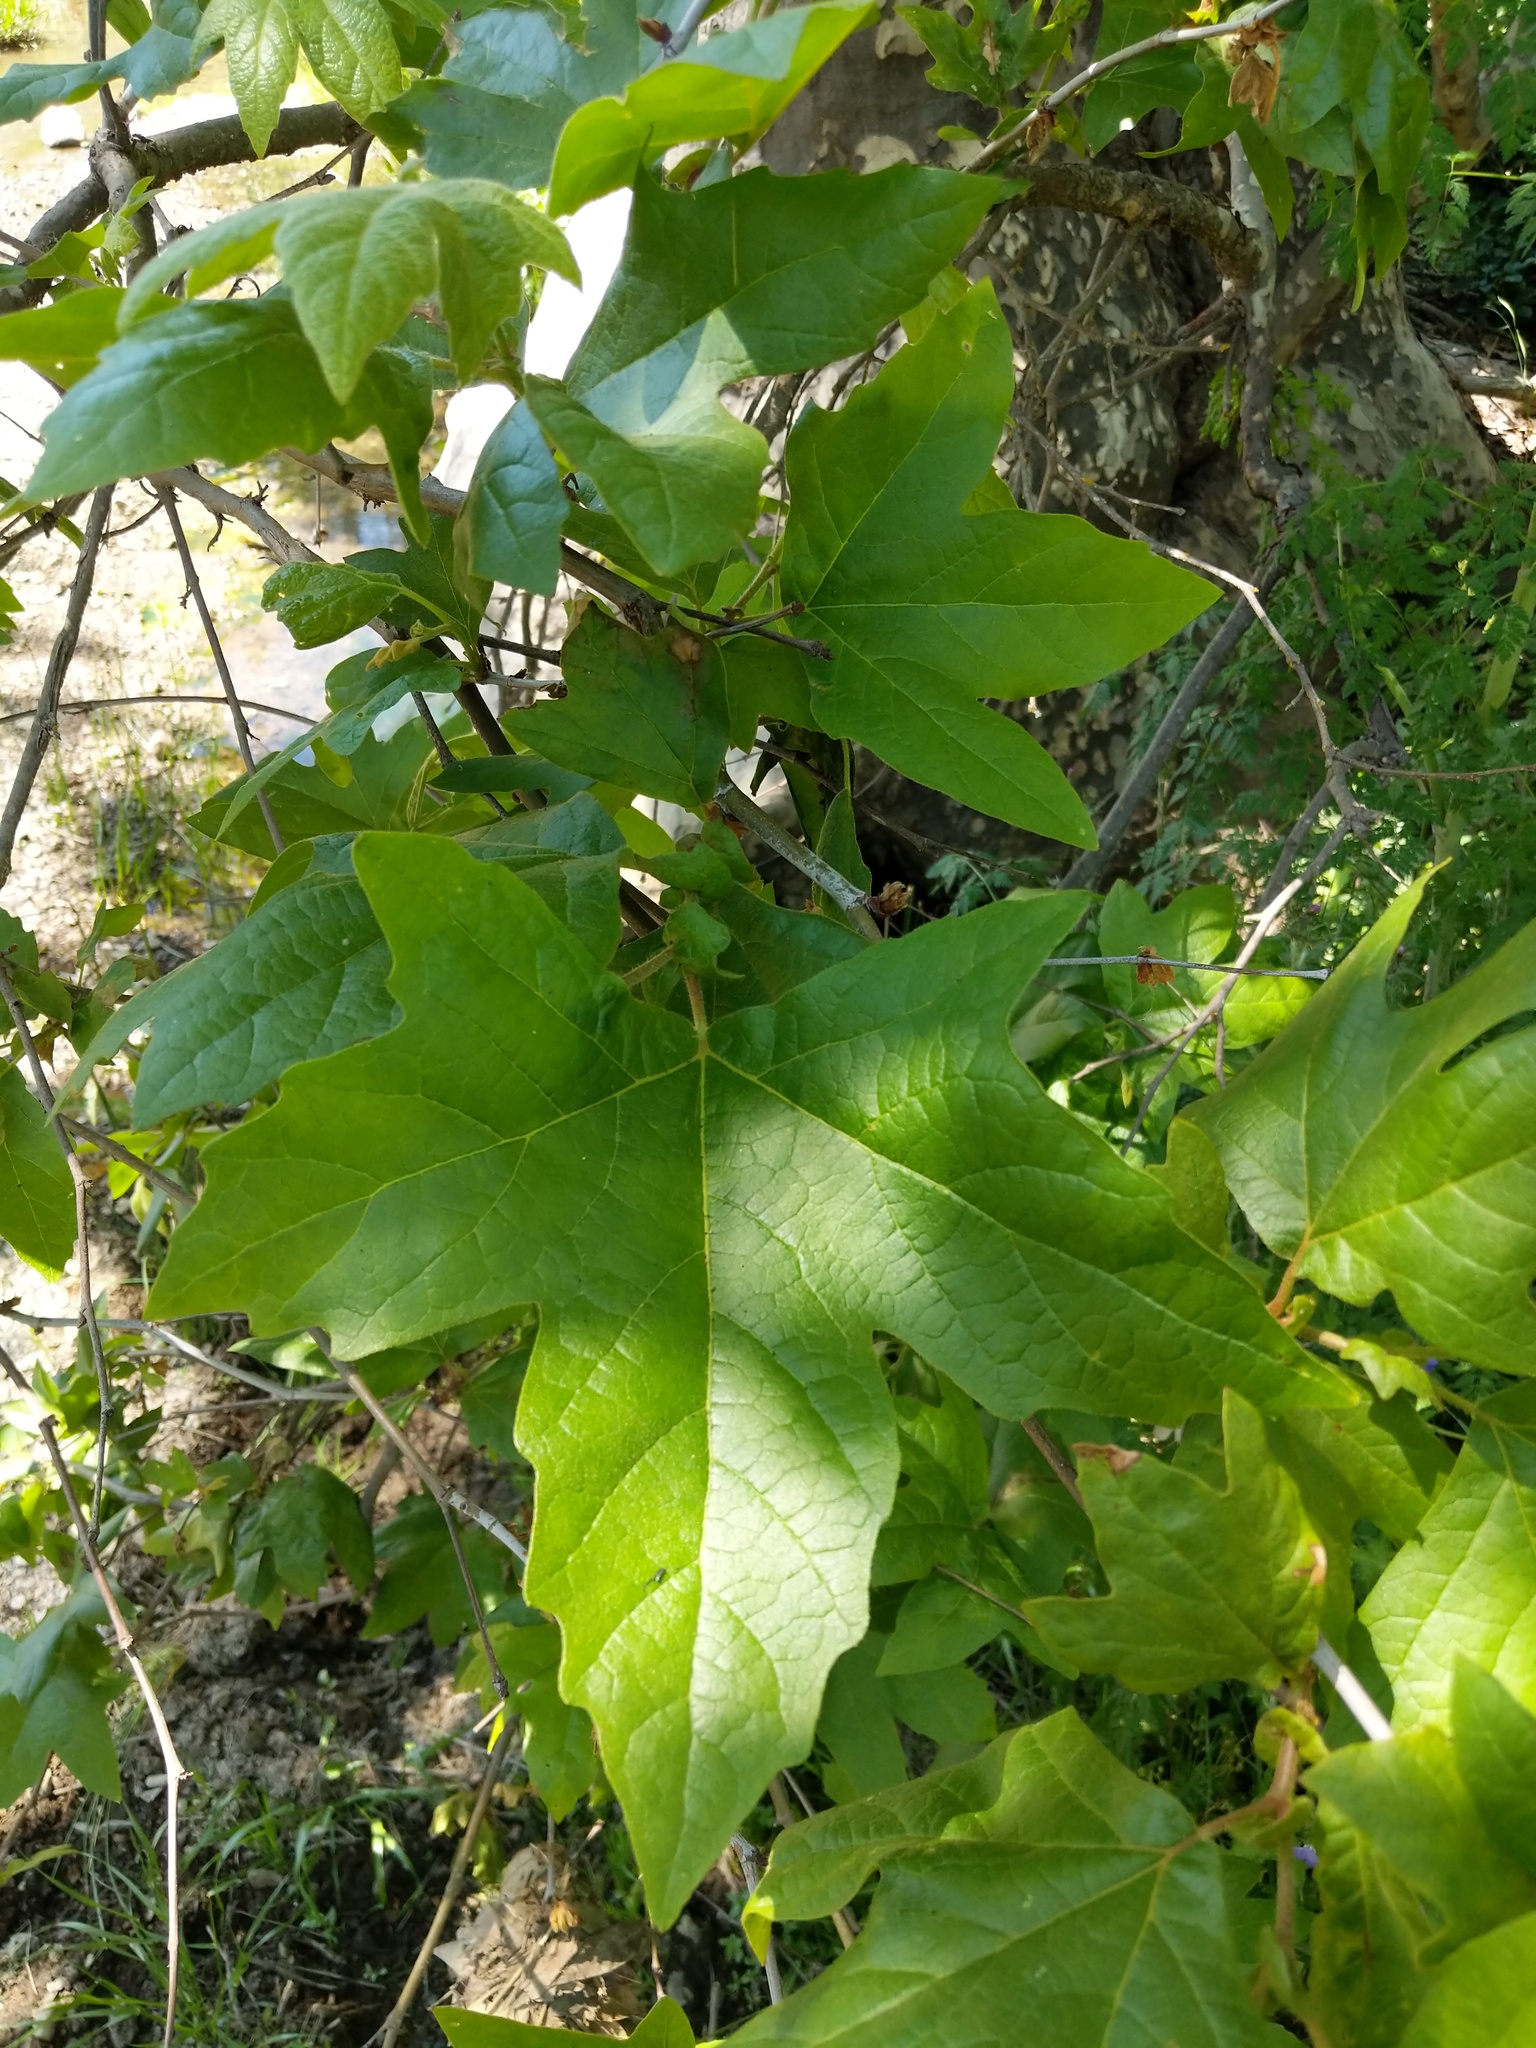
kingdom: Plantae
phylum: Tracheophyta
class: Magnoliopsida
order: Proteales
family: Platanaceae
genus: Platanus
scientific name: Platanus racemosa
